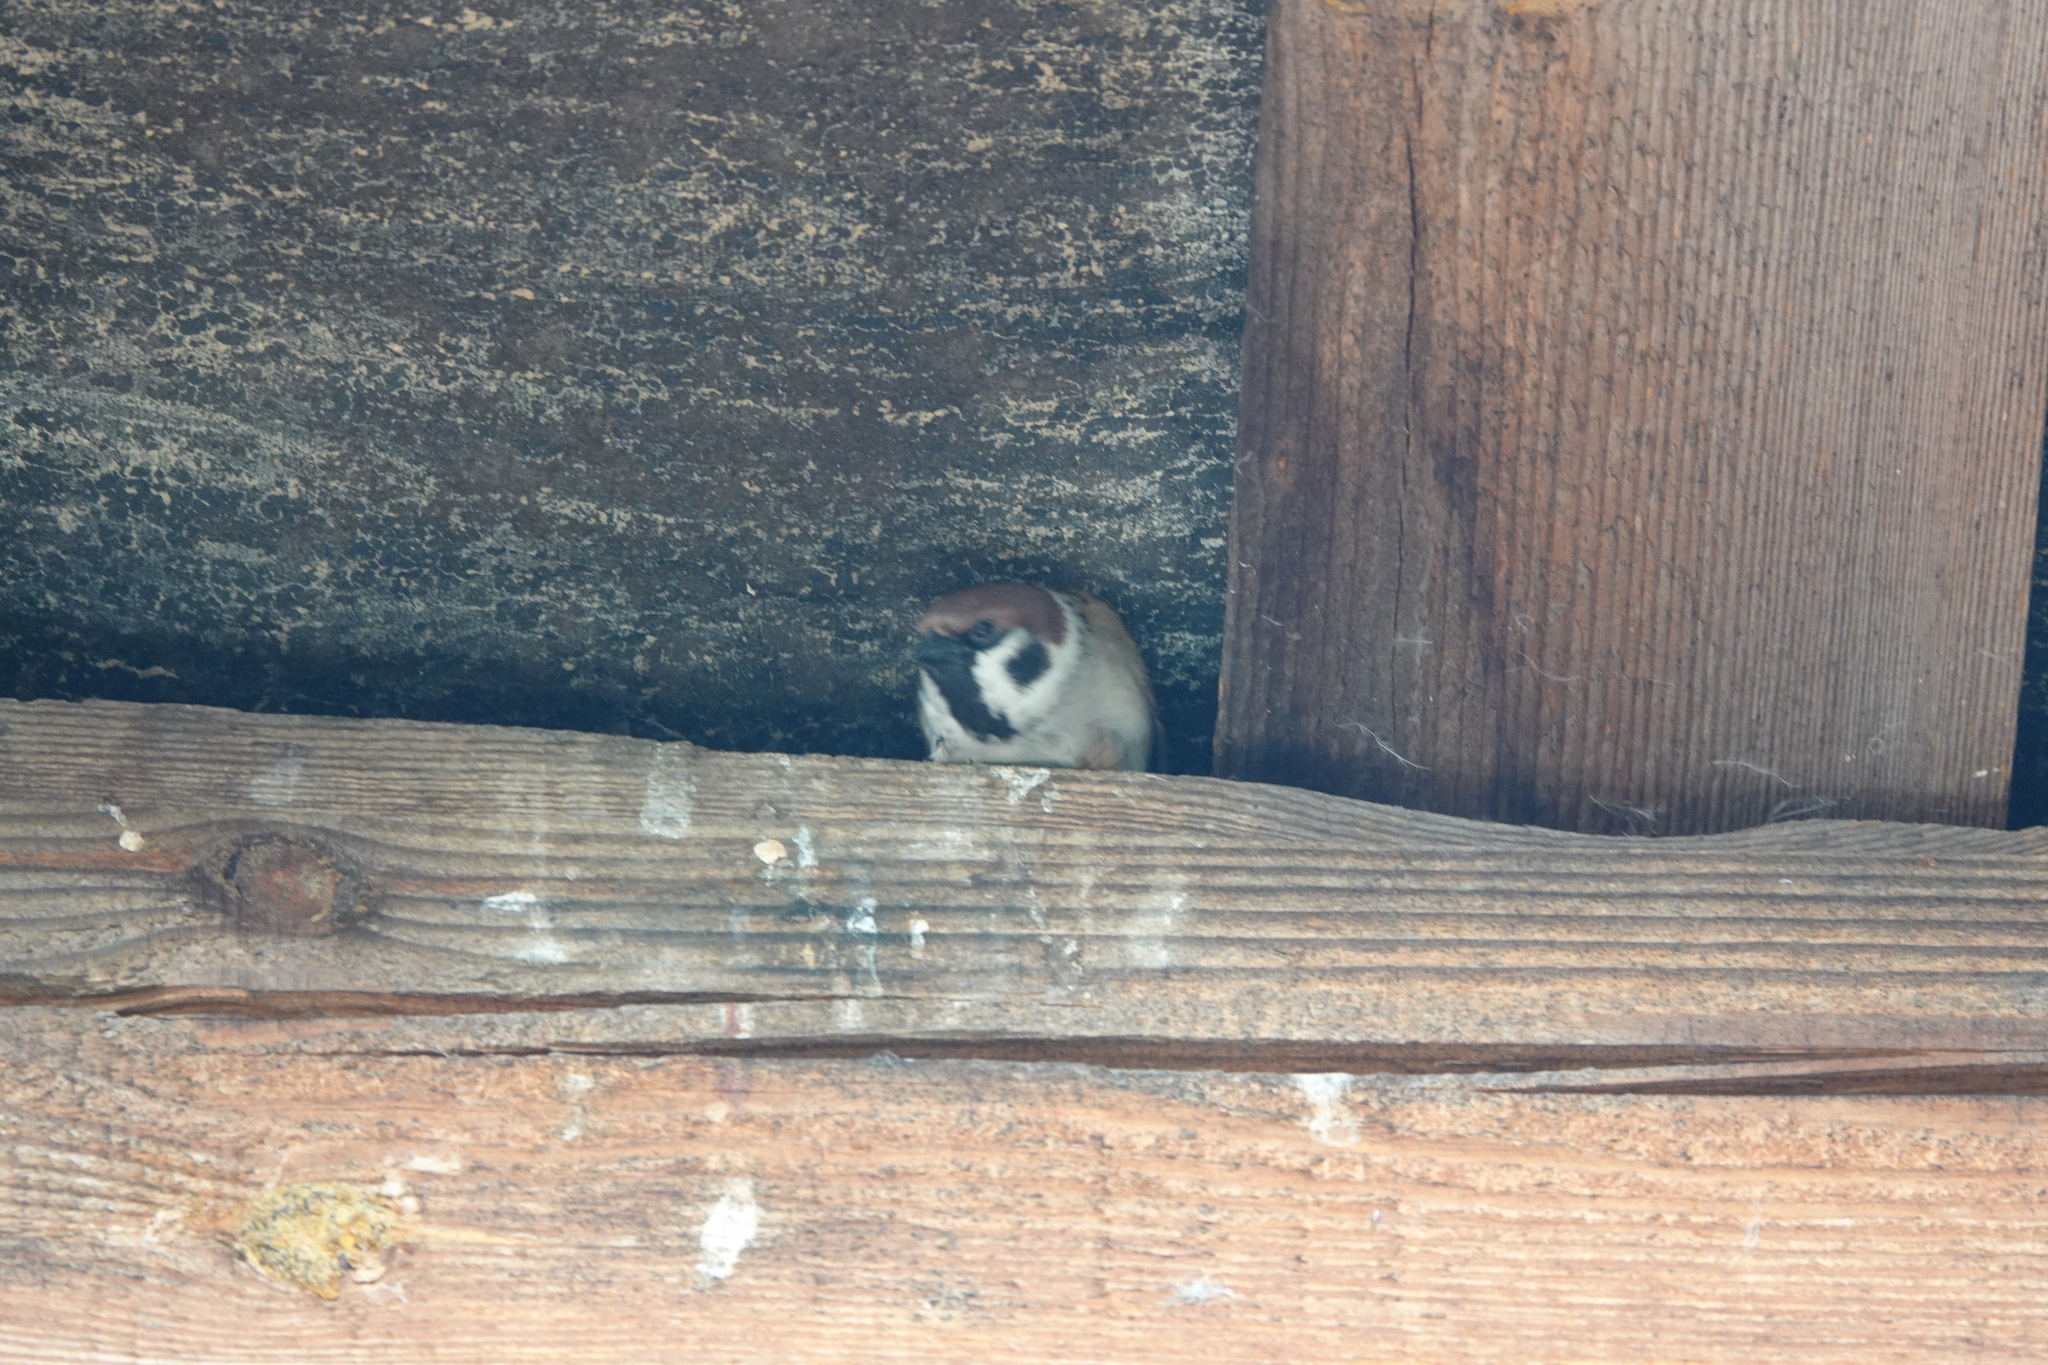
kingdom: Animalia
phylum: Chordata
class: Aves
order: Passeriformes
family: Passeridae
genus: Passer
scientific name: Passer montanus
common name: Eurasian tree sparrow
